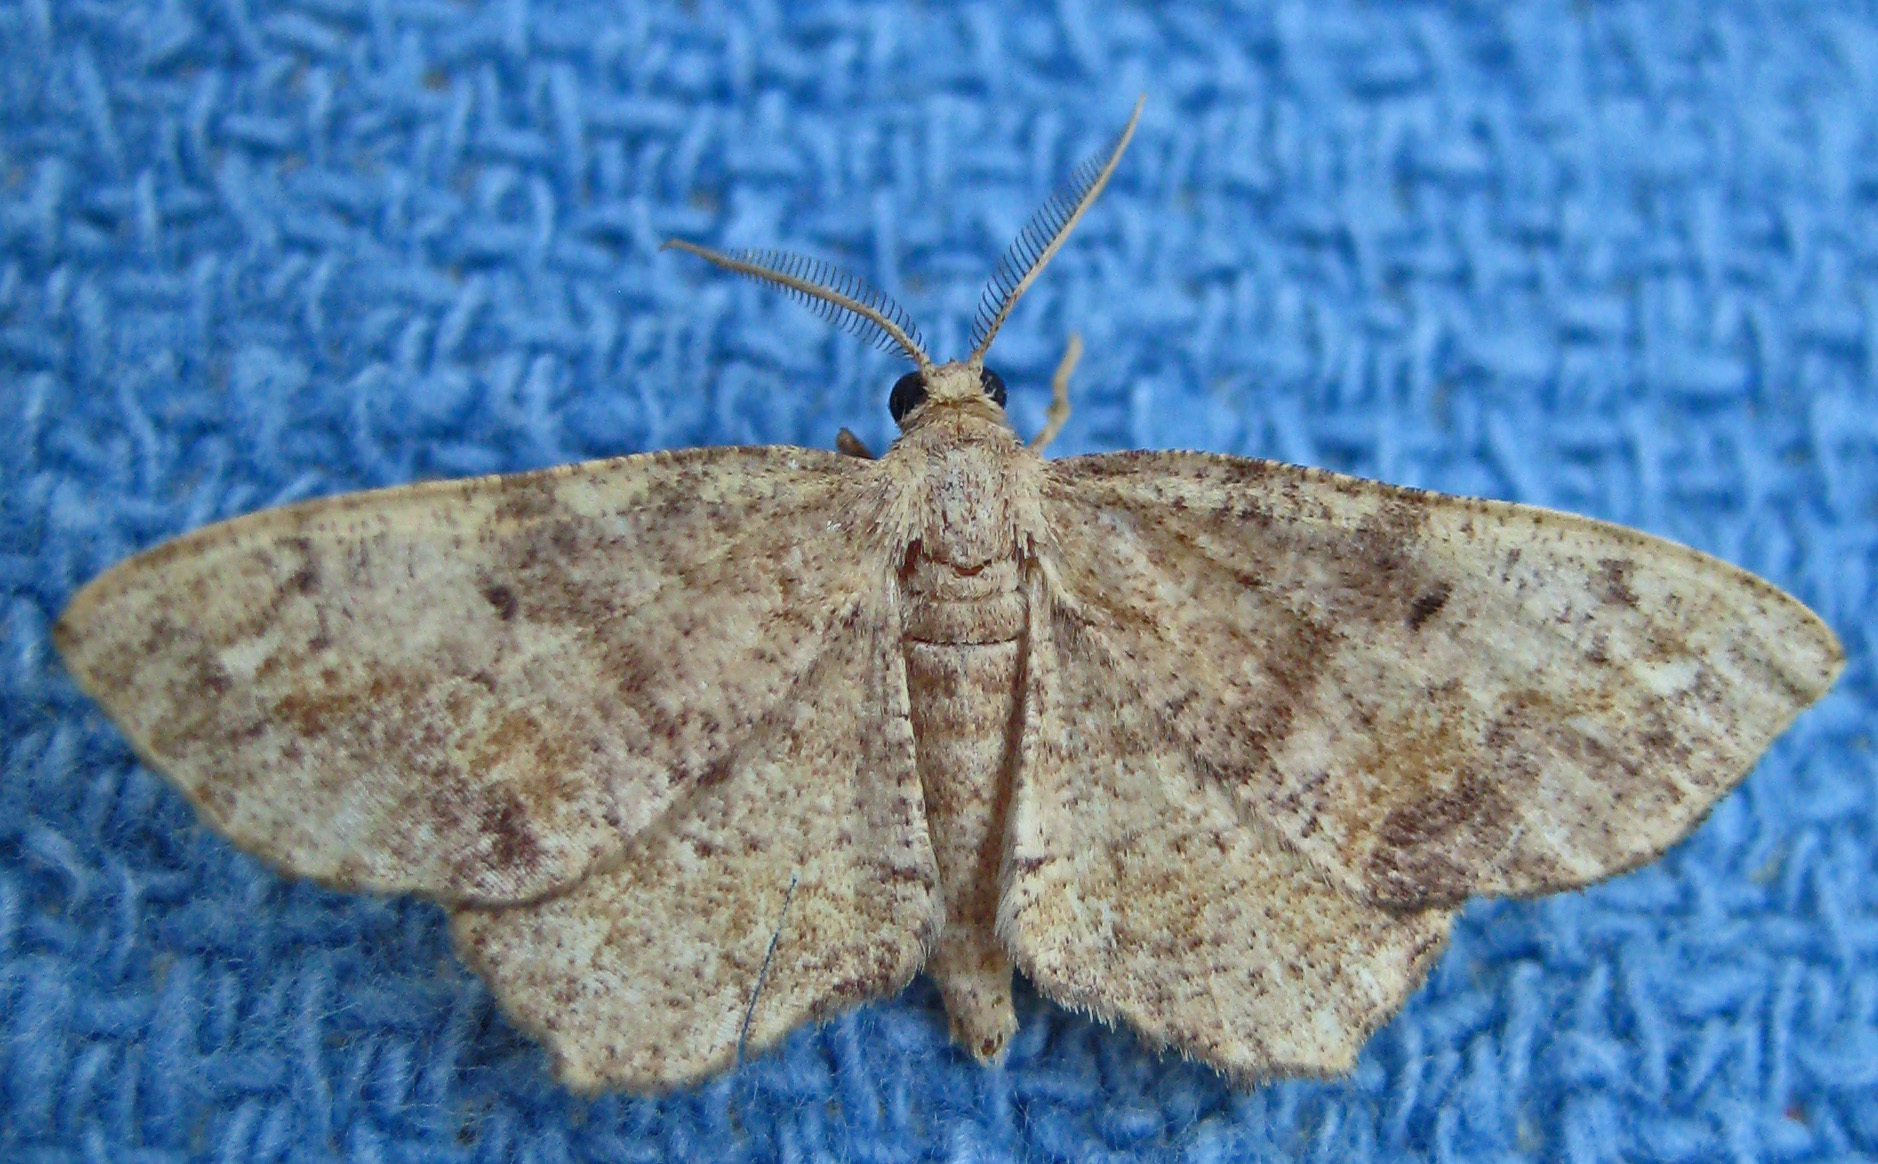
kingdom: Animalia
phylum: Arthropoda
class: Insecta
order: Lepidoptera
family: Geometridae
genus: Hypagyrtis
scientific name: Hypagyrtis unipunctata
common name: One-spotted variant
